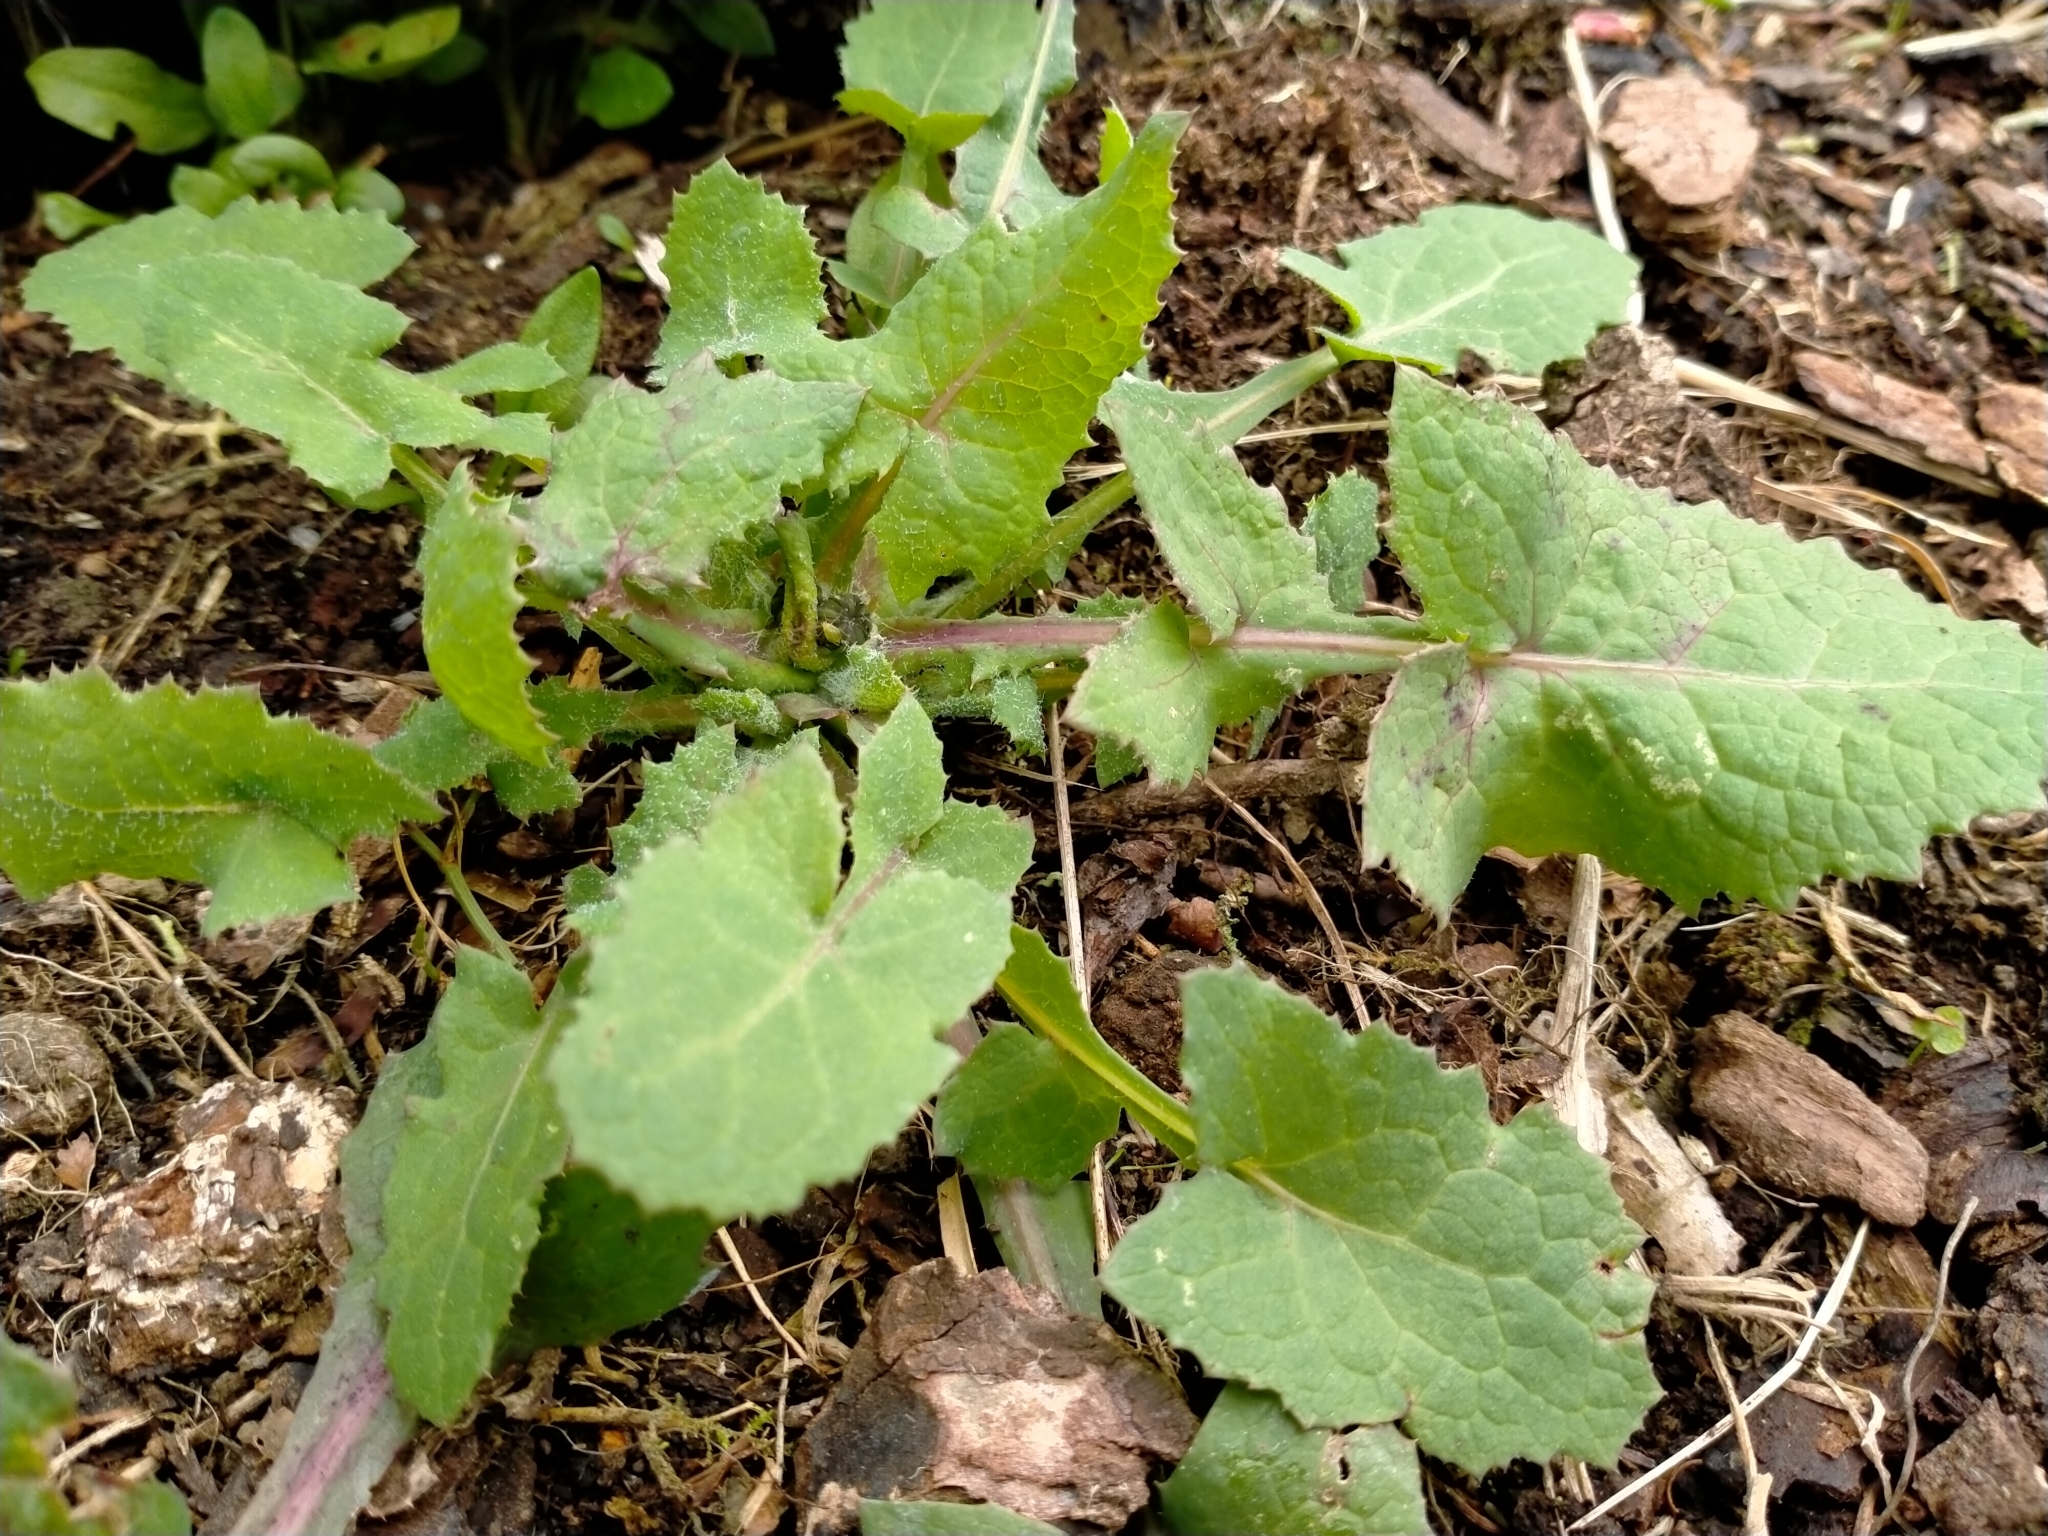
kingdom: Plantae
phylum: Tracheophyta
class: Magnoliopsida
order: Asterales
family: Asteraceae
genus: Sonchus
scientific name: Sonchus oleraceus
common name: Common sowthistle
